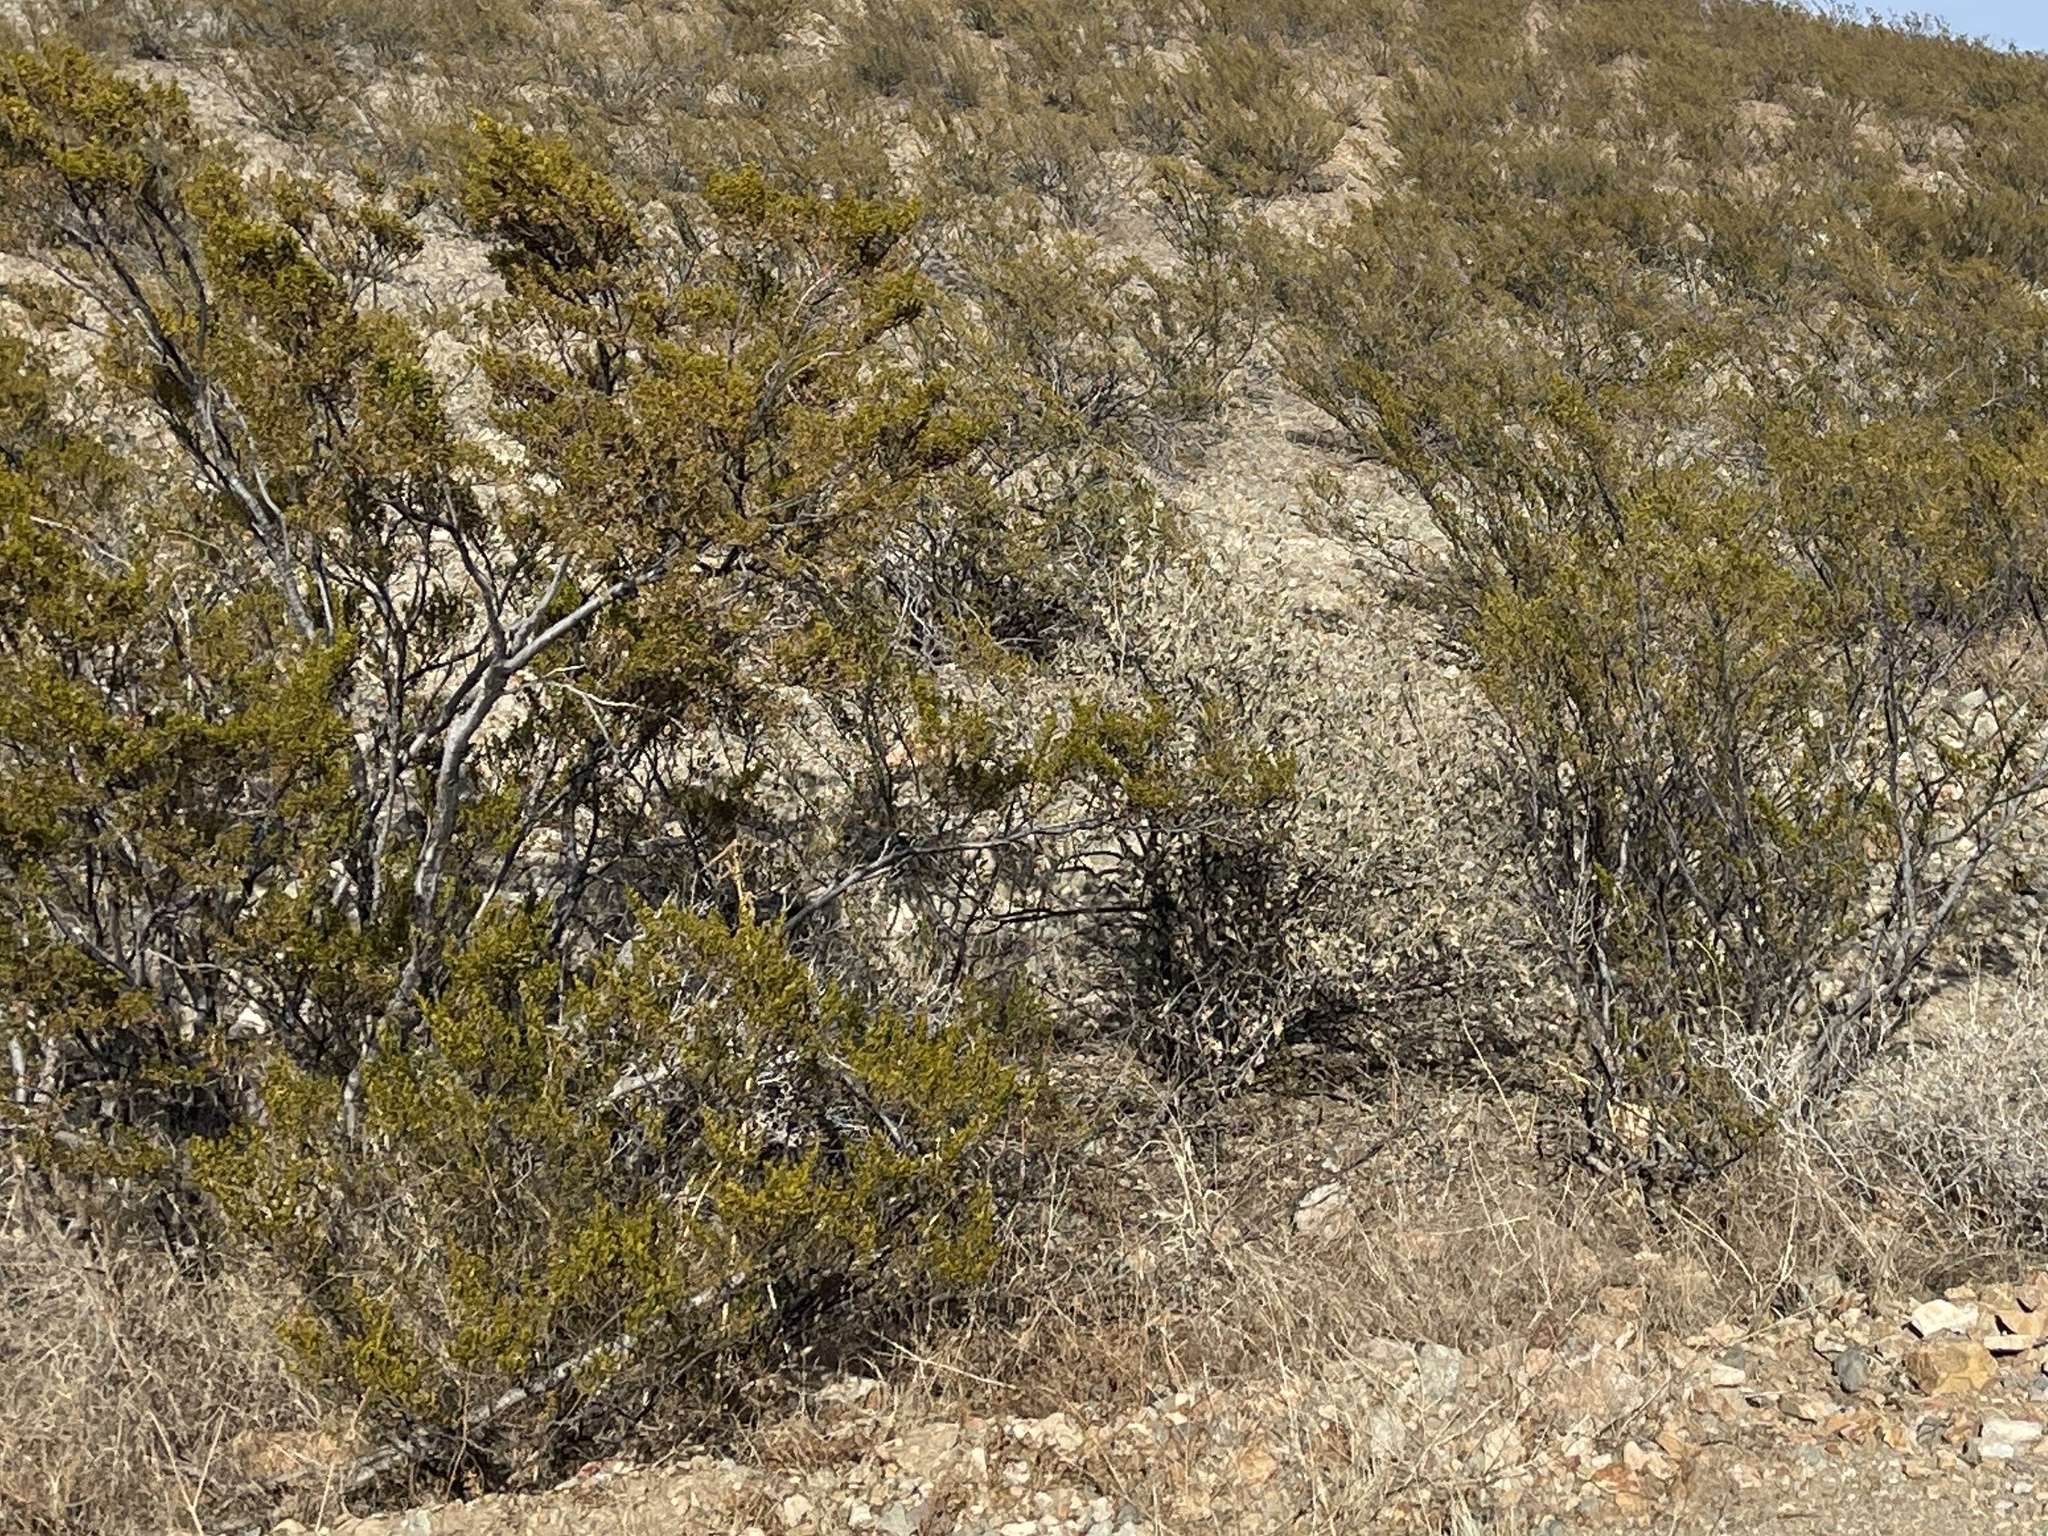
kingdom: Plantae
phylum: Tracheophyta
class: Magnoliopsida
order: Zygophyllales
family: Zygophyllaceae
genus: Larrea
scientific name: Larrea tridentata
